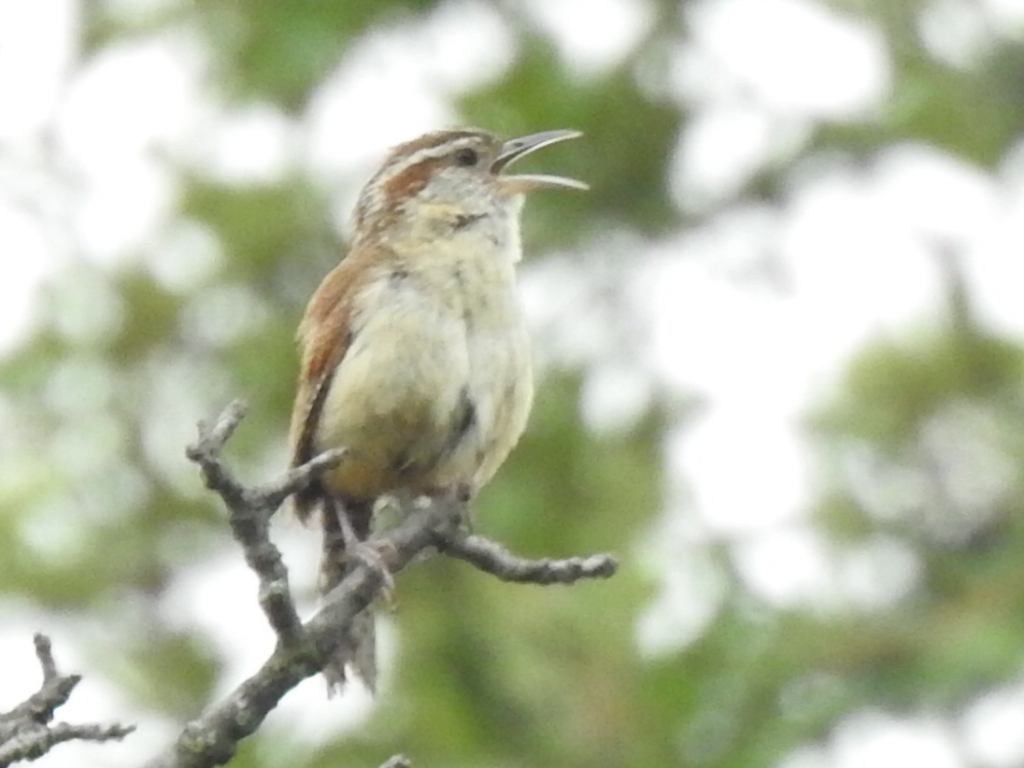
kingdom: Animalia
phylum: Chordata
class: Aves
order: Passeriformes
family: Troglodytidae
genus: Thryothorus
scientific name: Thryothorus ludovicianus
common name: Carolina wren
